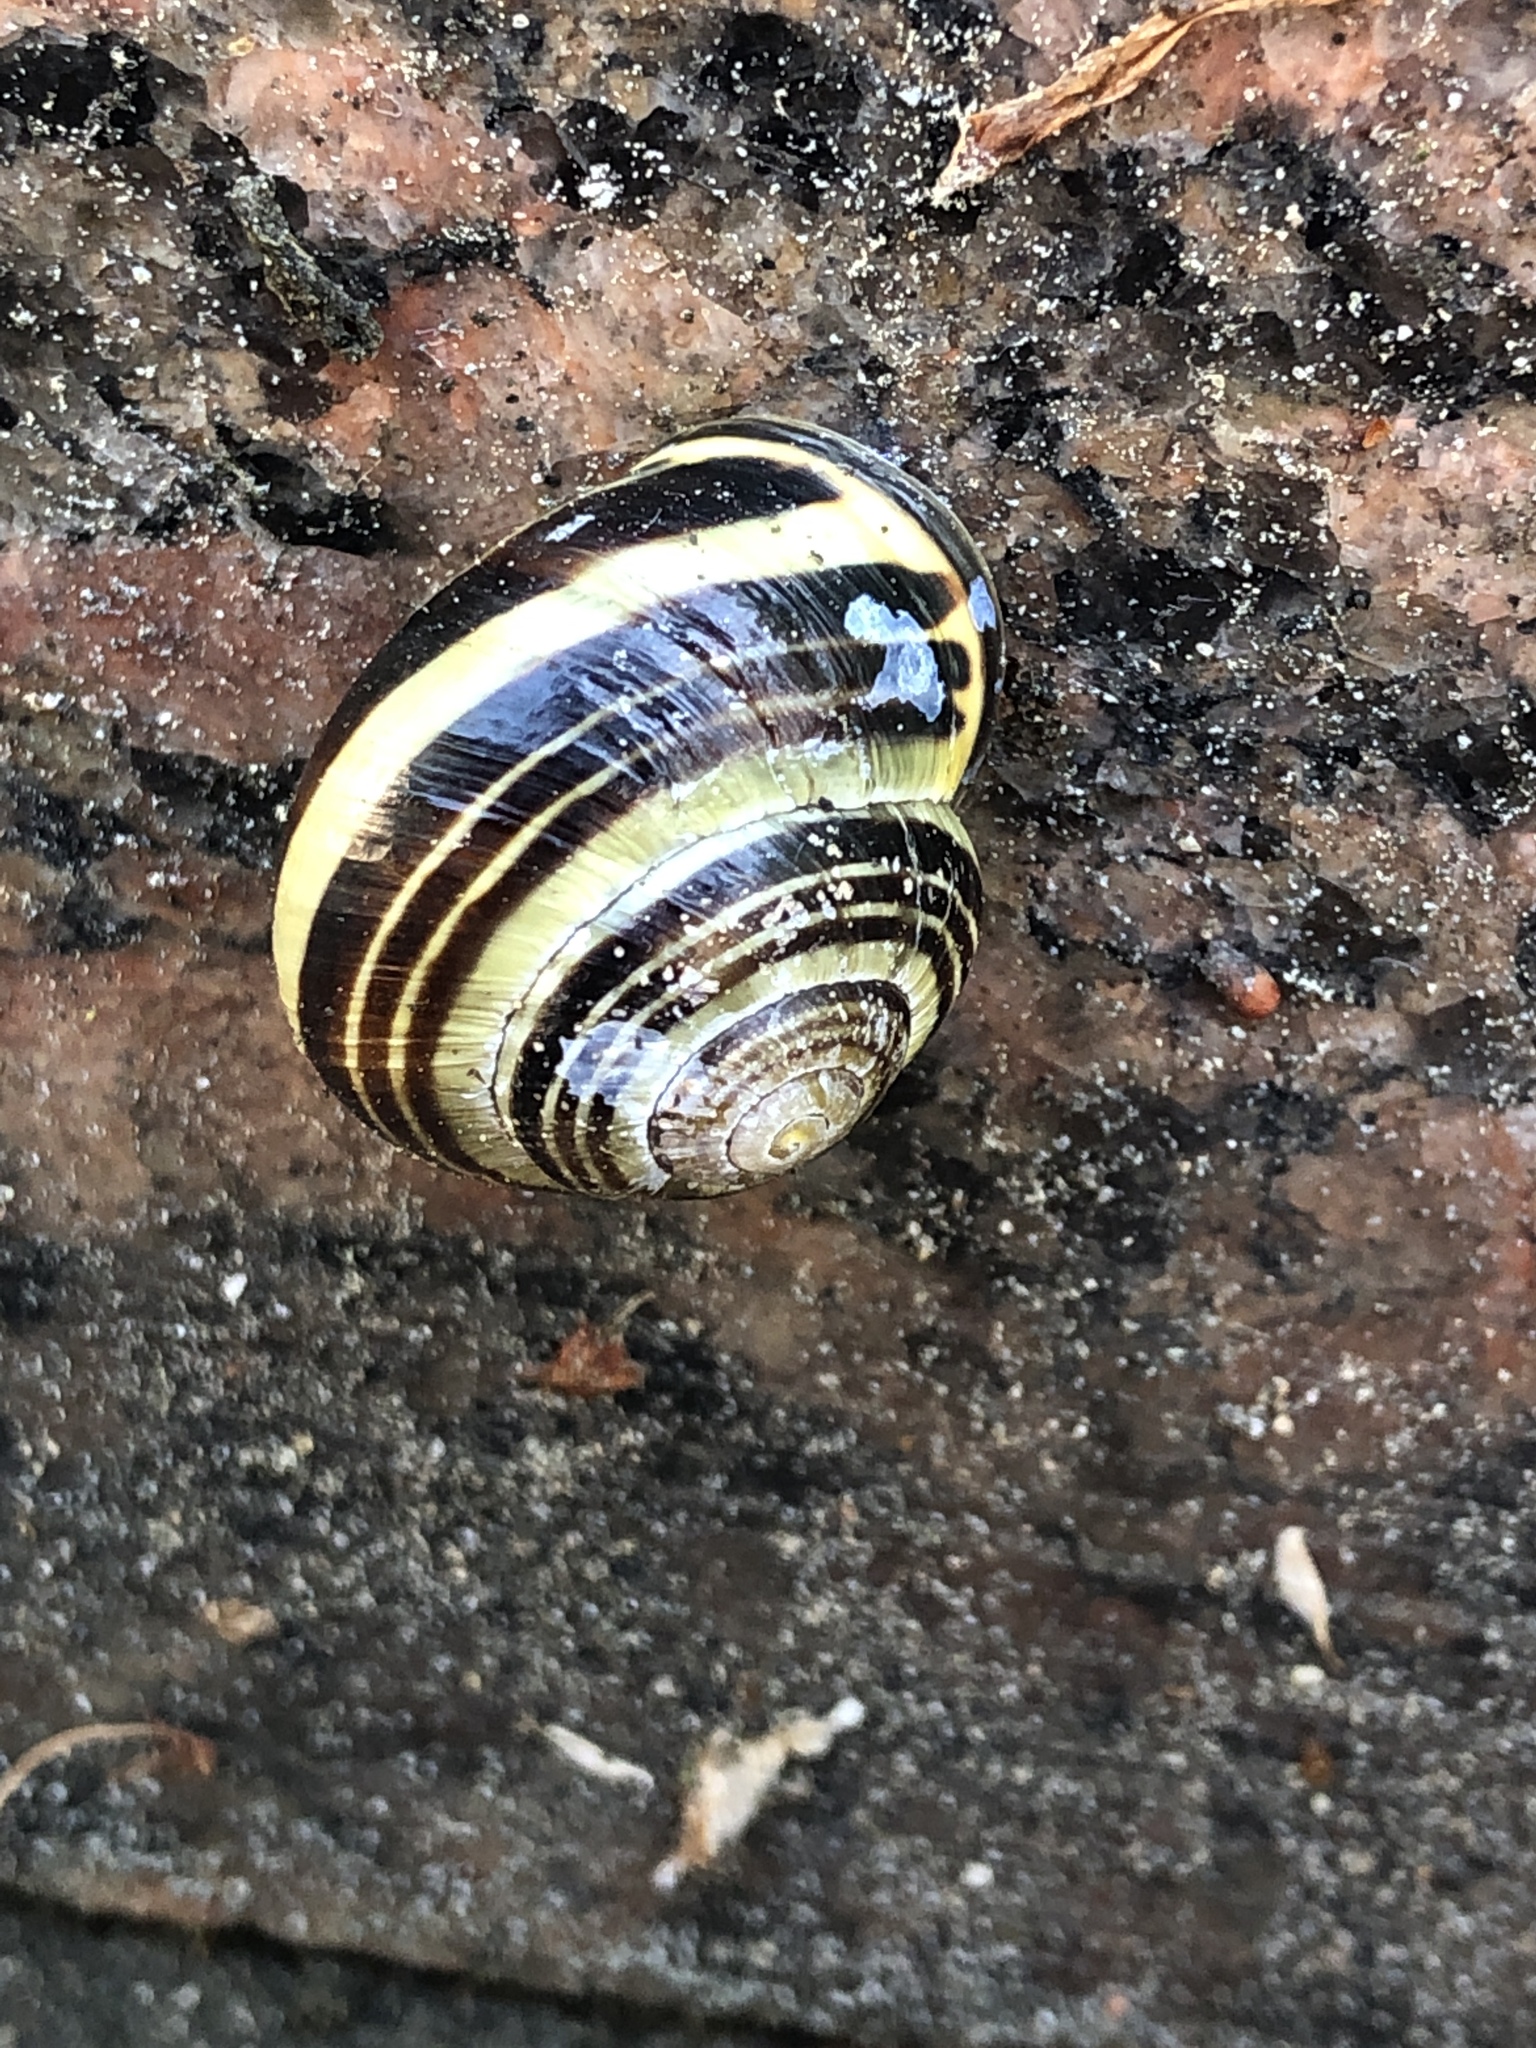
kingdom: Animalia
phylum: Mollusca
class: Gastropoda
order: Stylommatophora
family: Helicidae
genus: Cepaea
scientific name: Cepaea nemoralis
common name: Grovesnail
